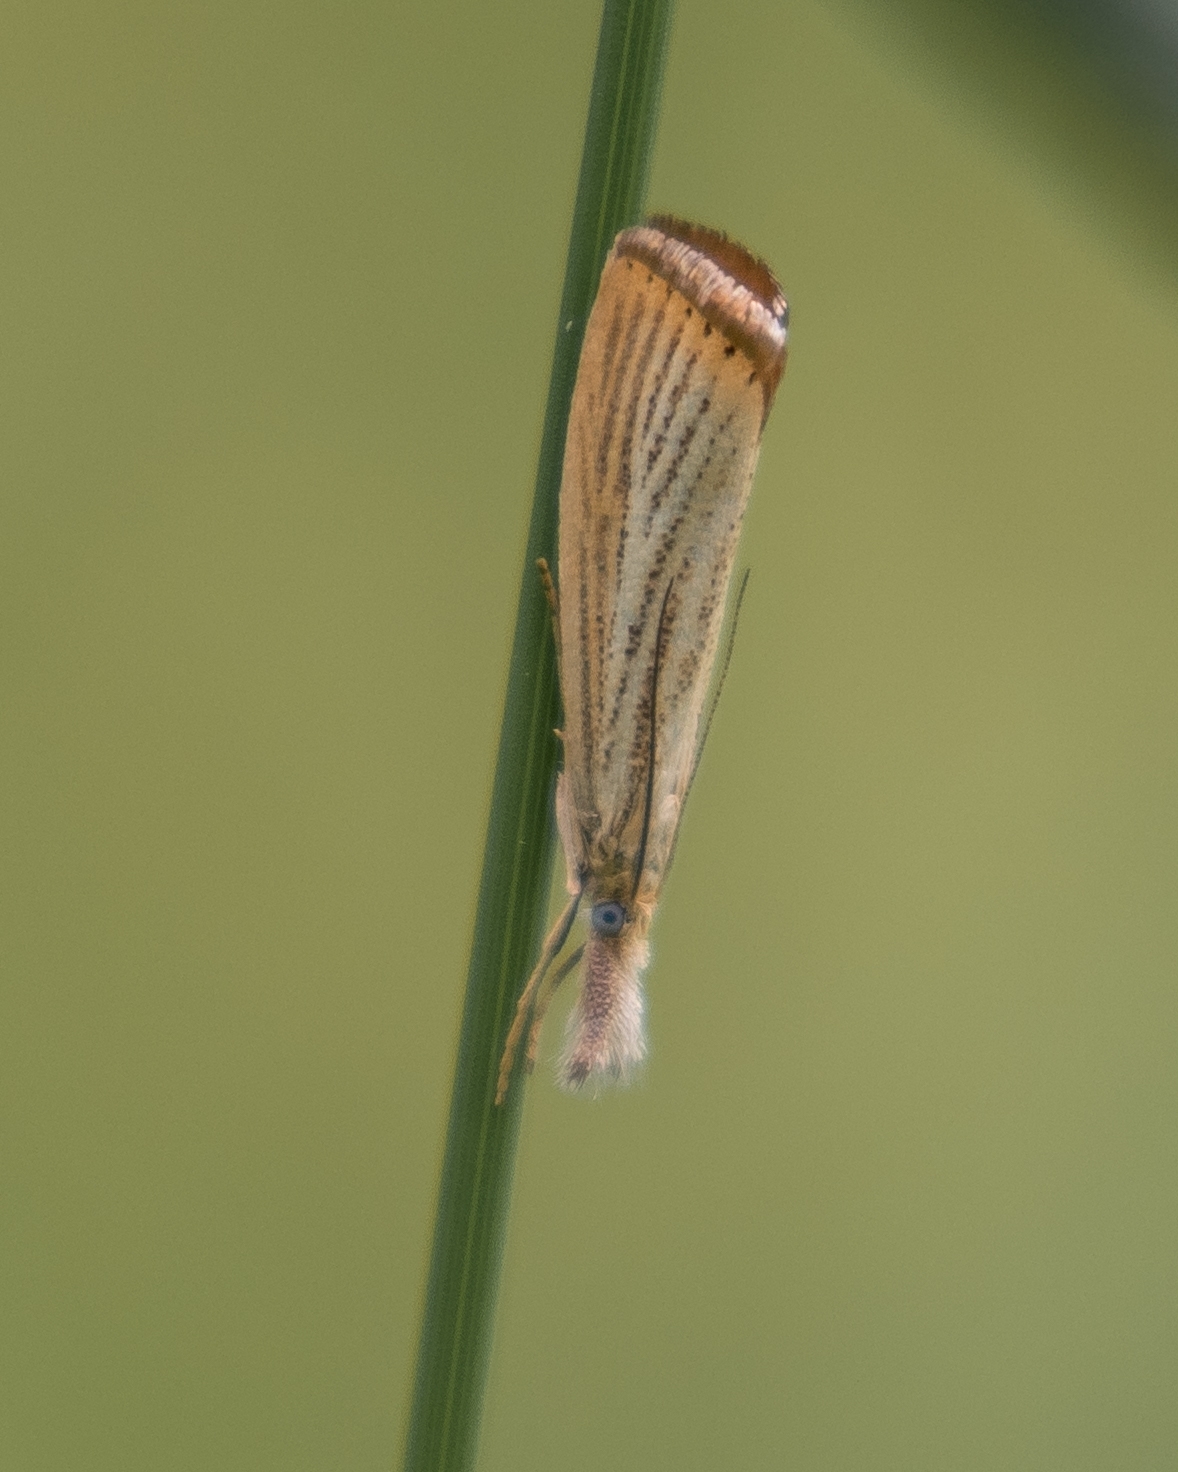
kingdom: Animalia
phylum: Arthropoda
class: Insecta
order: Lepidoptera
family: Crambidae
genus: Agriphila
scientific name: Agriphila straminella
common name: Straw grass-veneer
